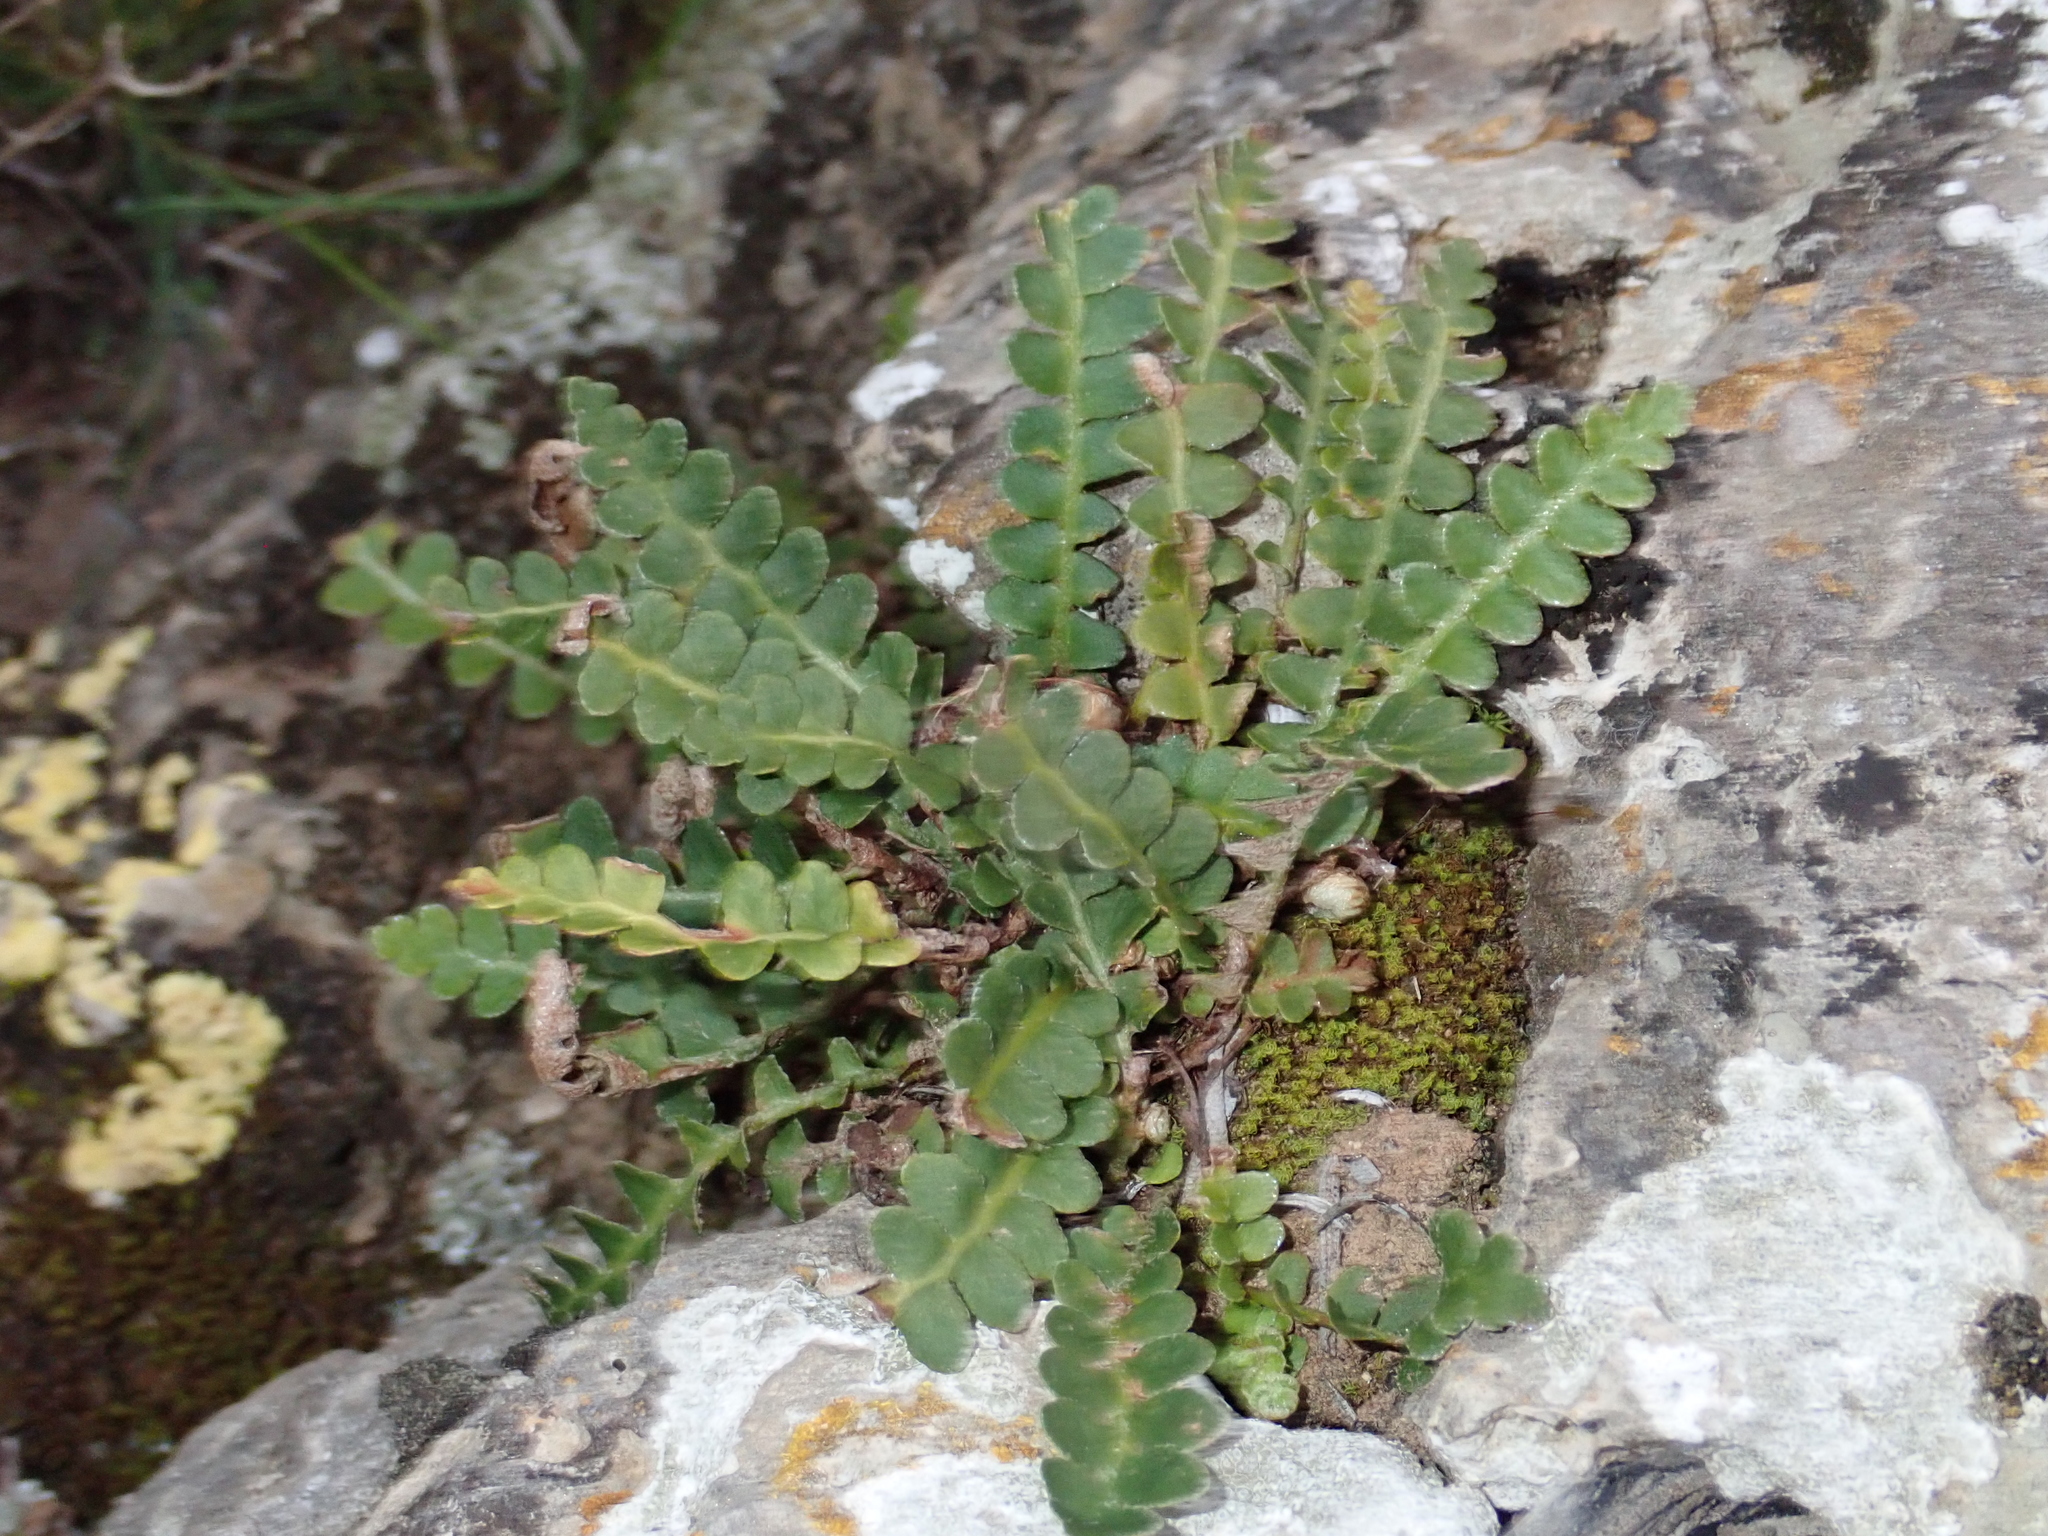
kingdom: Plantae
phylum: Tracheophyta
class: Polypodiopsida
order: Polypodiales
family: Aspleniaceae
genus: Asplenium
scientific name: Asplenium ceterach
